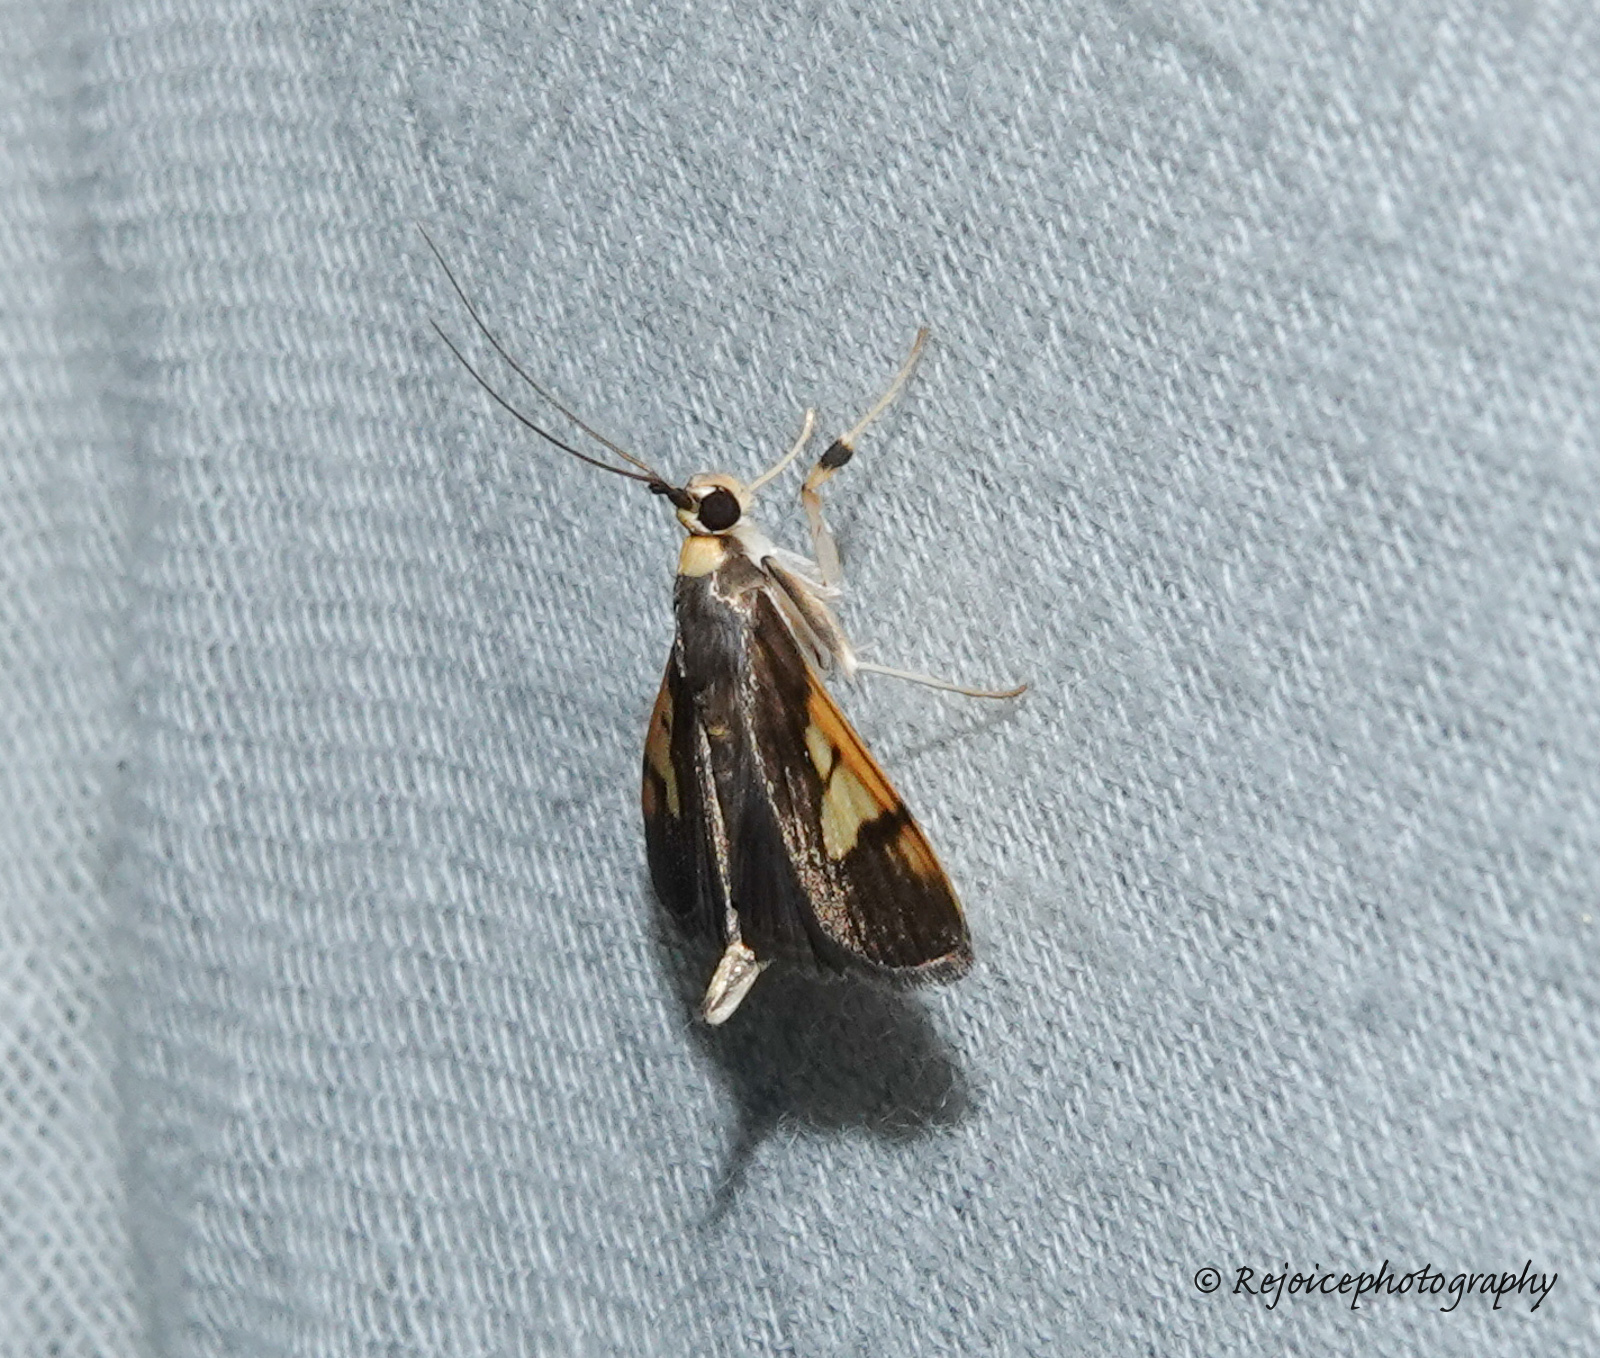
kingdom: Animalia
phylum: Arthropoda
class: Insecta
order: Lepidoptera
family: Crambidae
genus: Ulopeza
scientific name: Ulopeza idyalis
